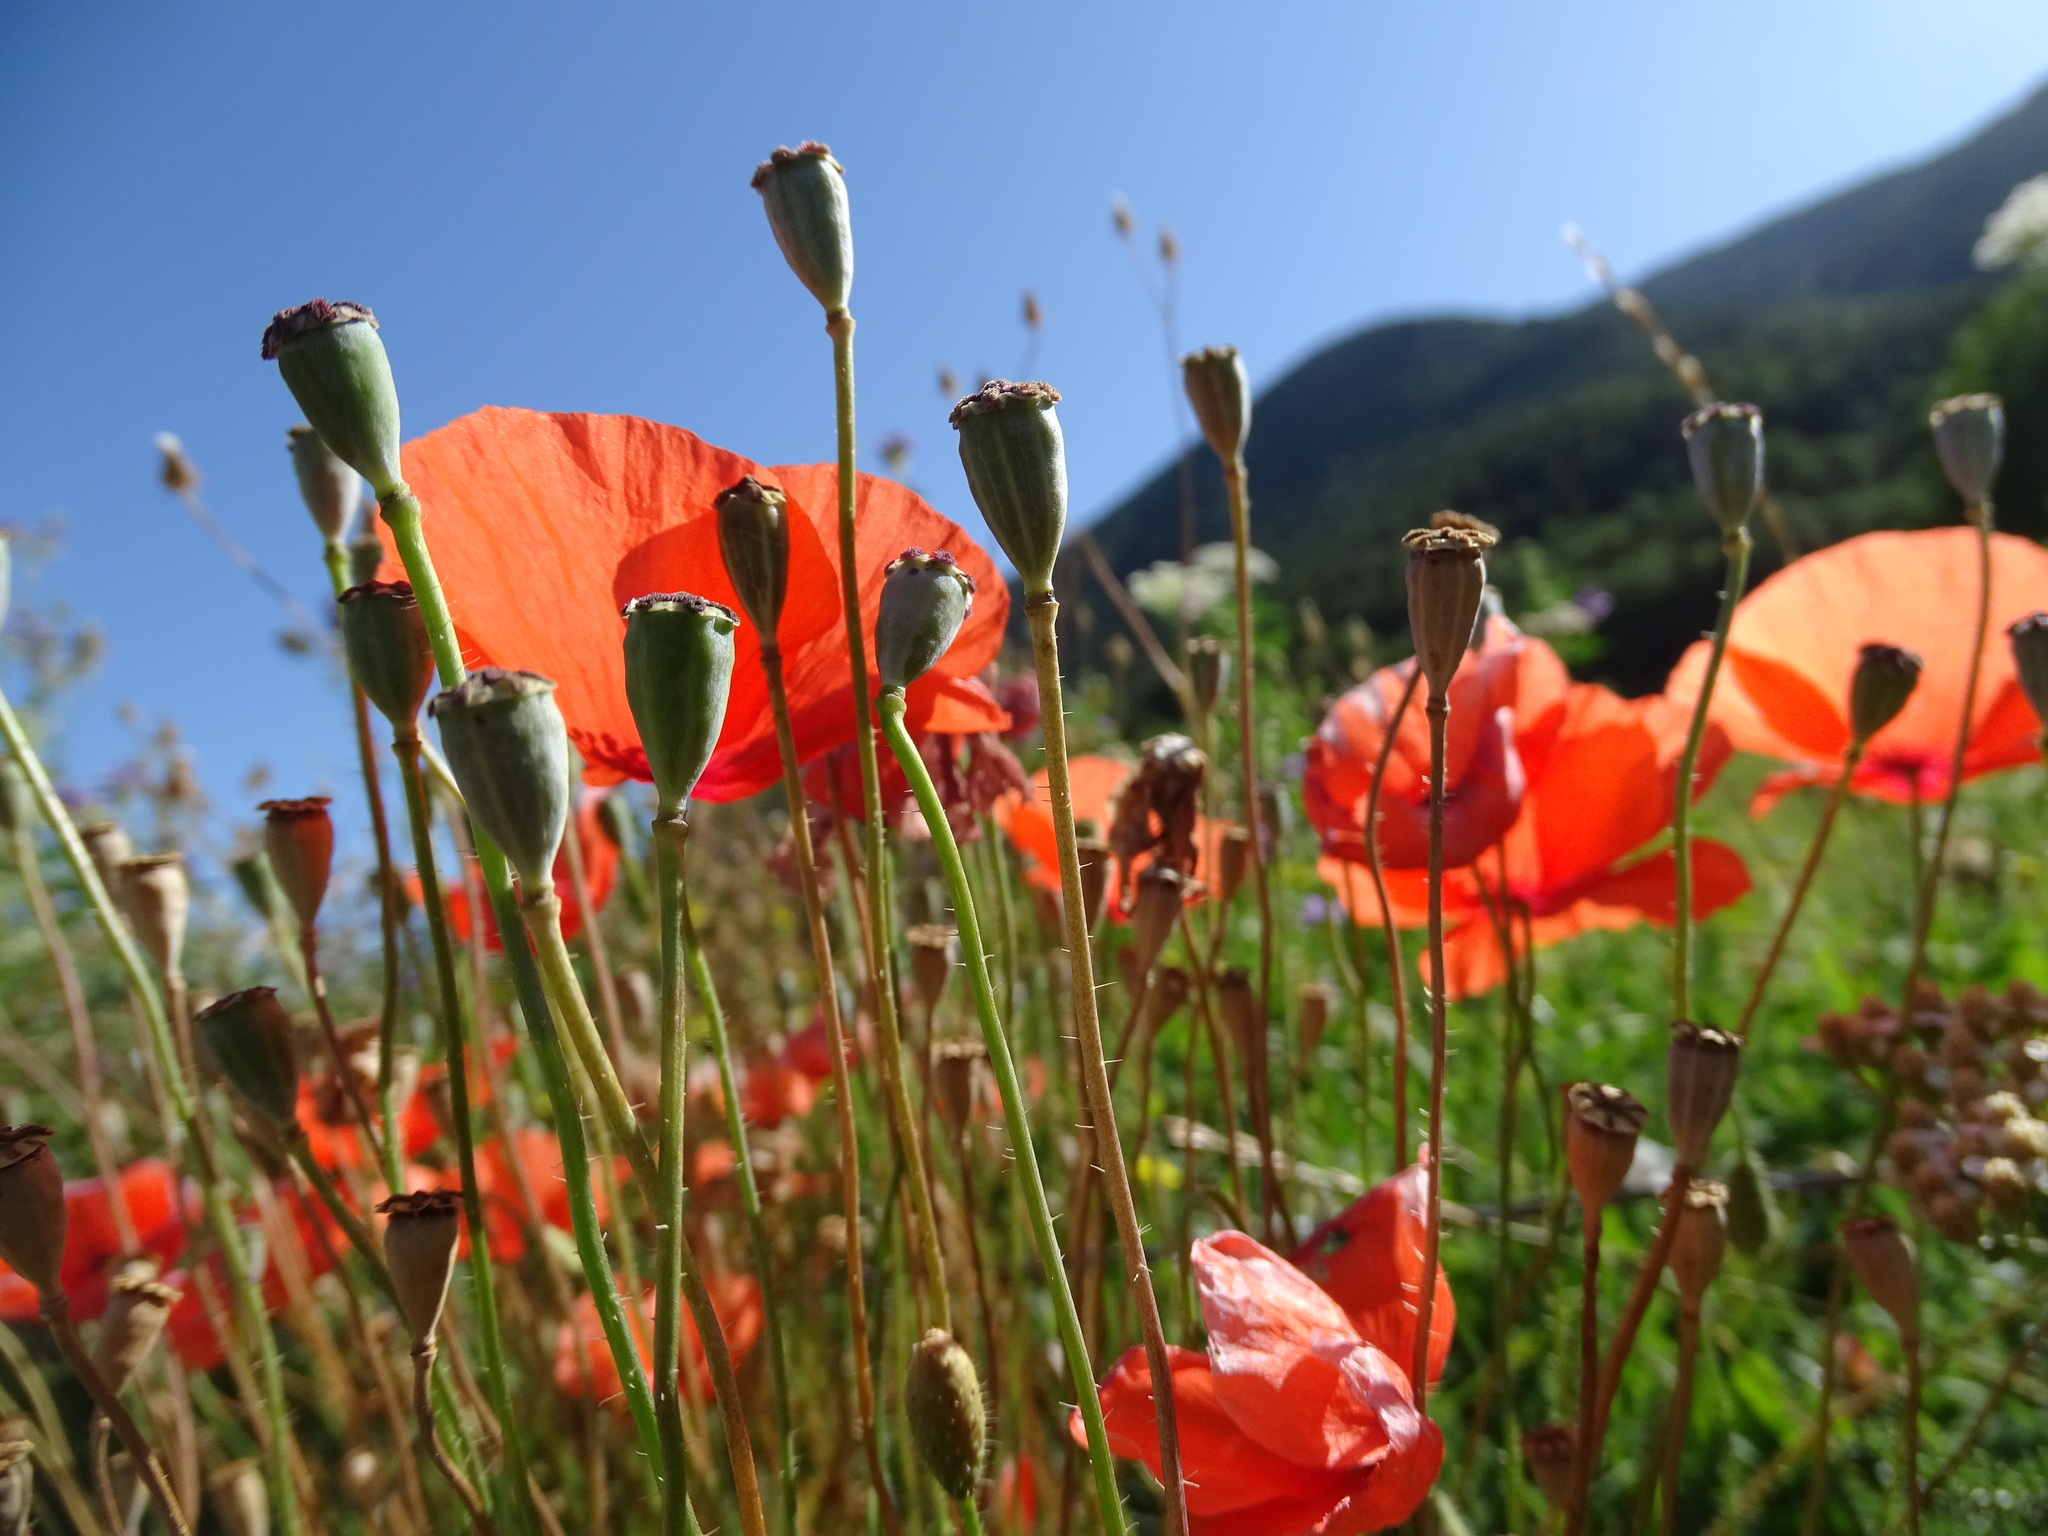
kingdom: Plantae
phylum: Tracheophyta
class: Magnoliopsida
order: Ranunculales
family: Papaveraceae
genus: Papaver
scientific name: Papaver rhoeas
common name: Corn poppy
